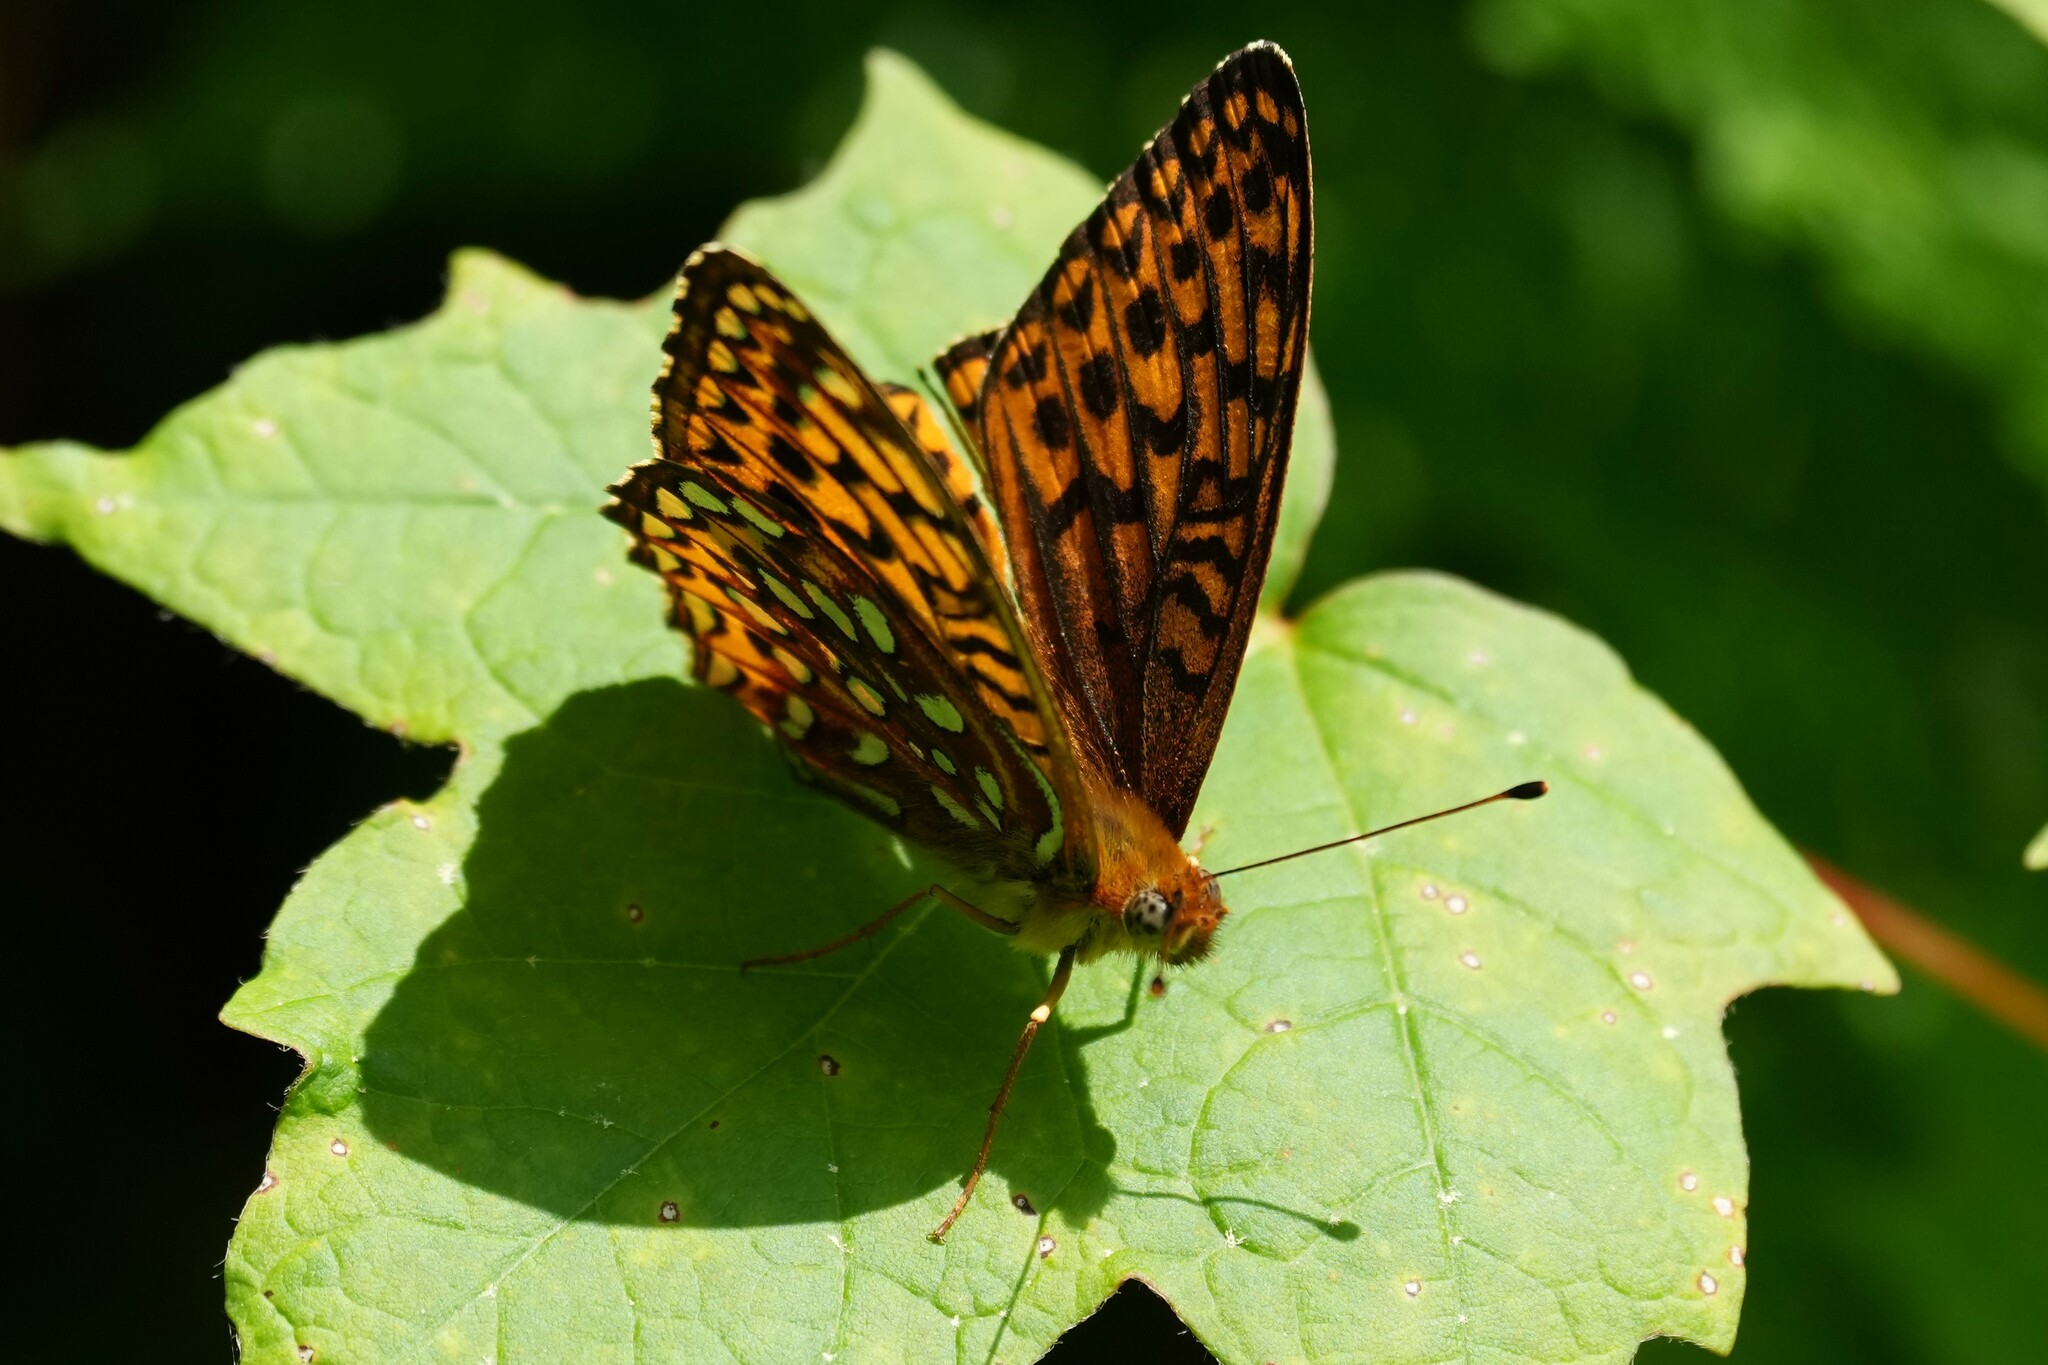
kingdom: Animalia
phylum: Arthropoda
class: Insecta
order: Lepidoptera
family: Nymphalidae
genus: Speyeria
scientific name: Speyeria atlantis
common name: Atlantis fritillary
